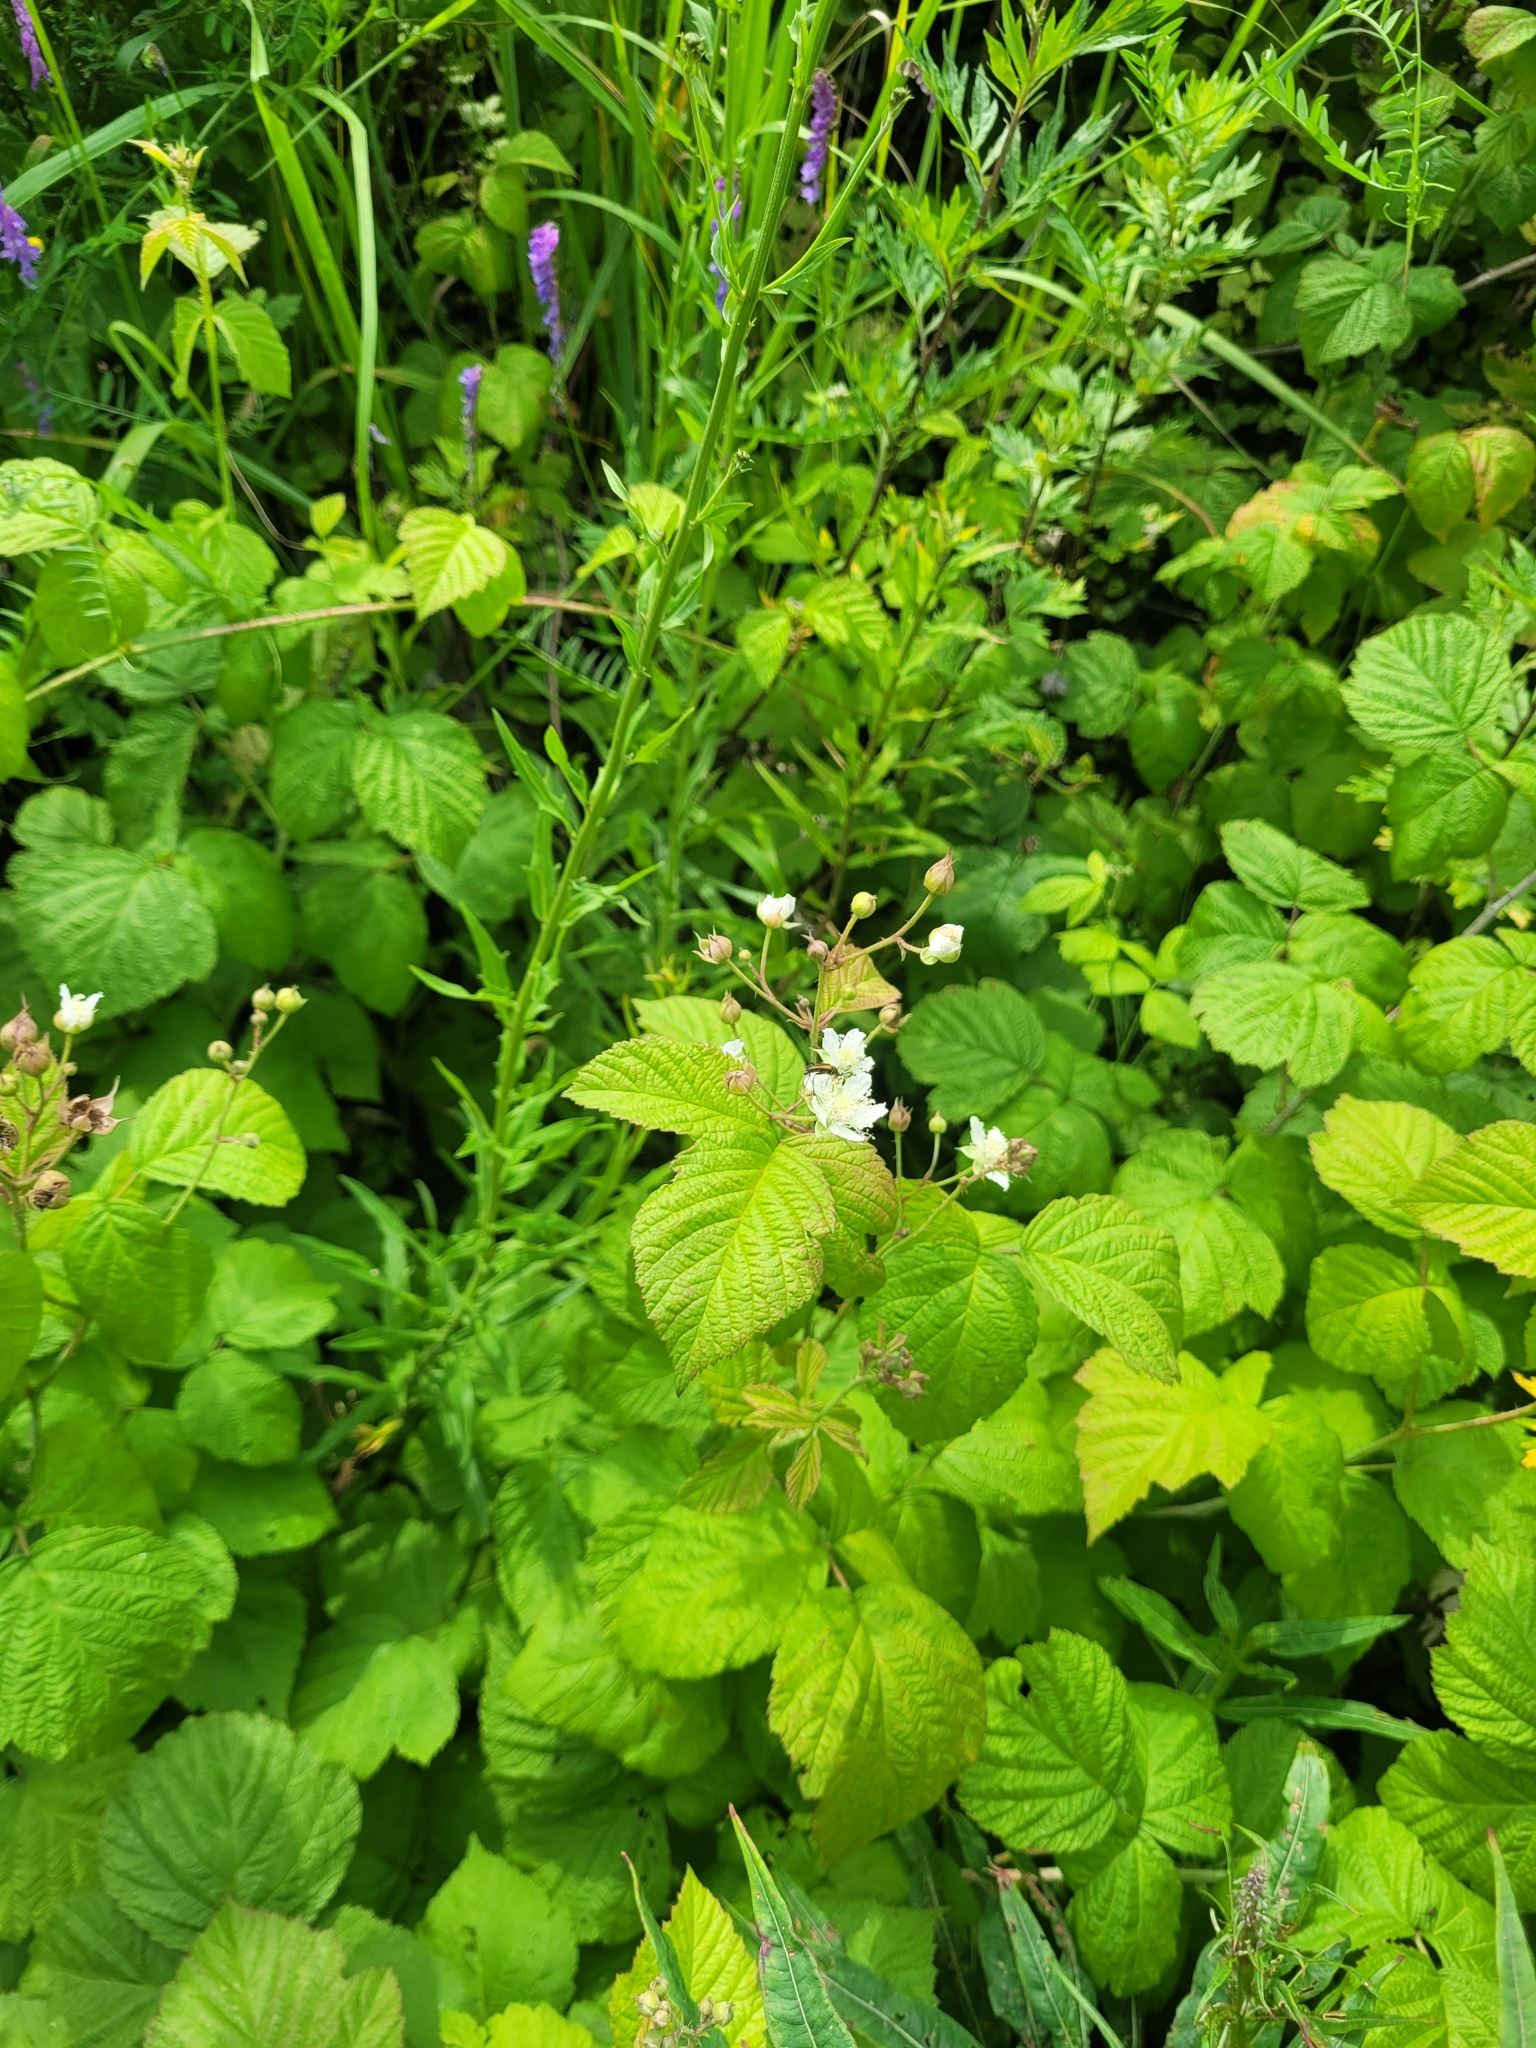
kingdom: Plantae
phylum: Tracheophyta
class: Magnoliopsida
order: Rosales
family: Rosaceae
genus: Rubus
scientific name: Rubus caesius
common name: Dewberry
